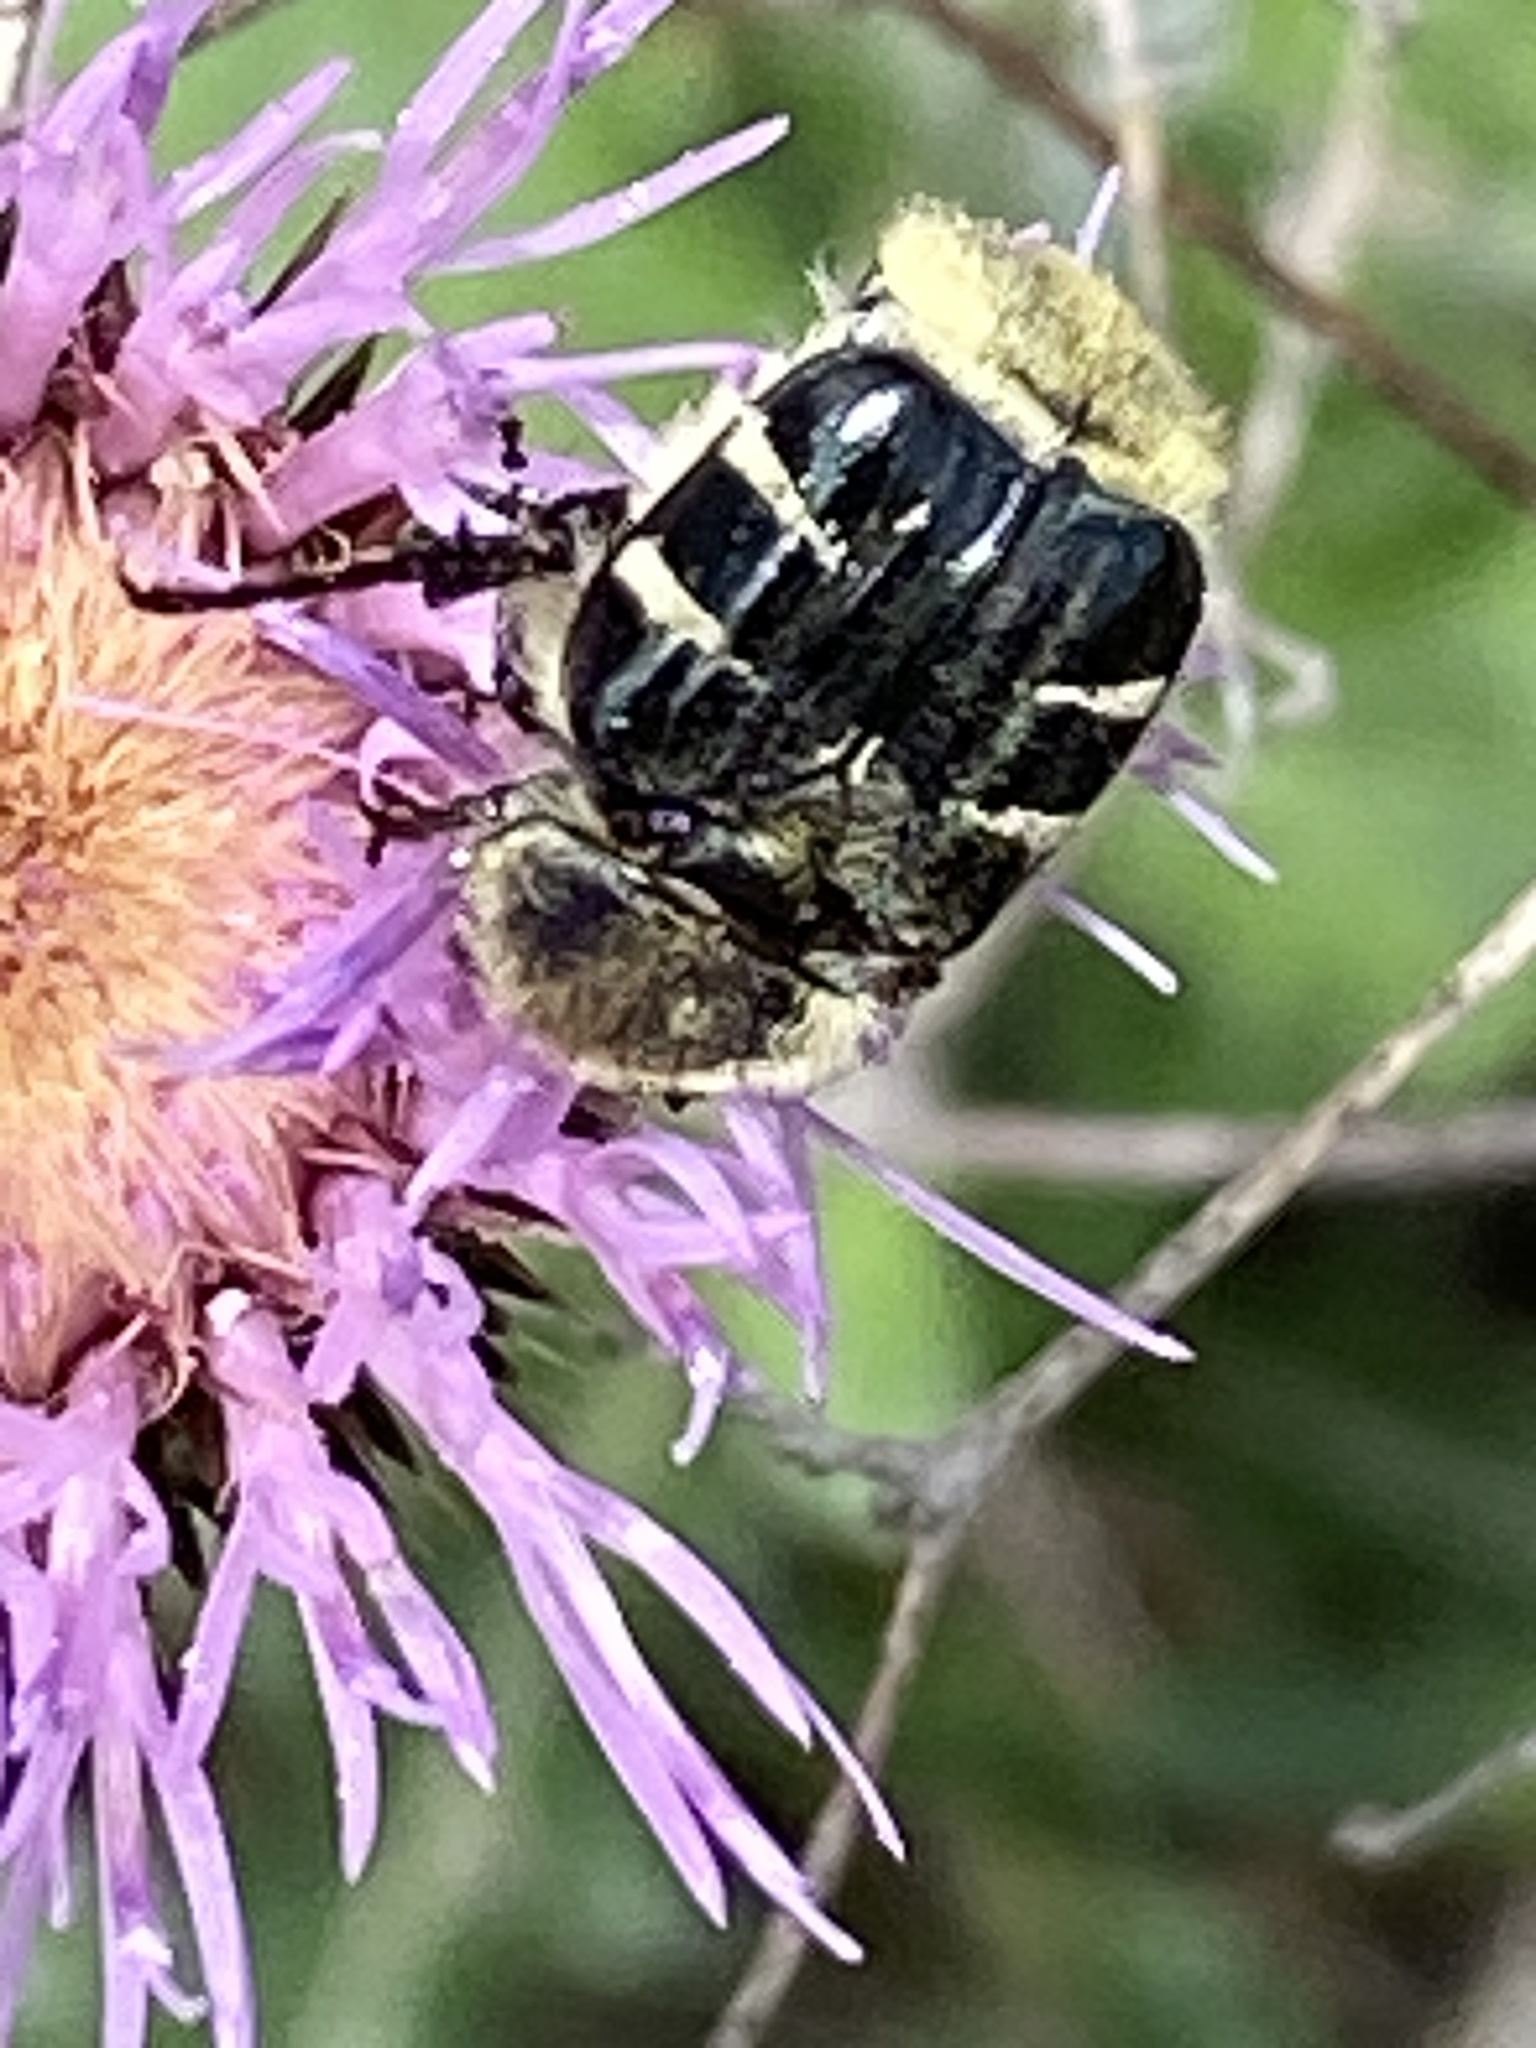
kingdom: Animalia
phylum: Arthropoda
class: Insecta
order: Coleoptera
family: Scarabaeidae
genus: Trichiotinus
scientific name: Trichiotinus texanus
